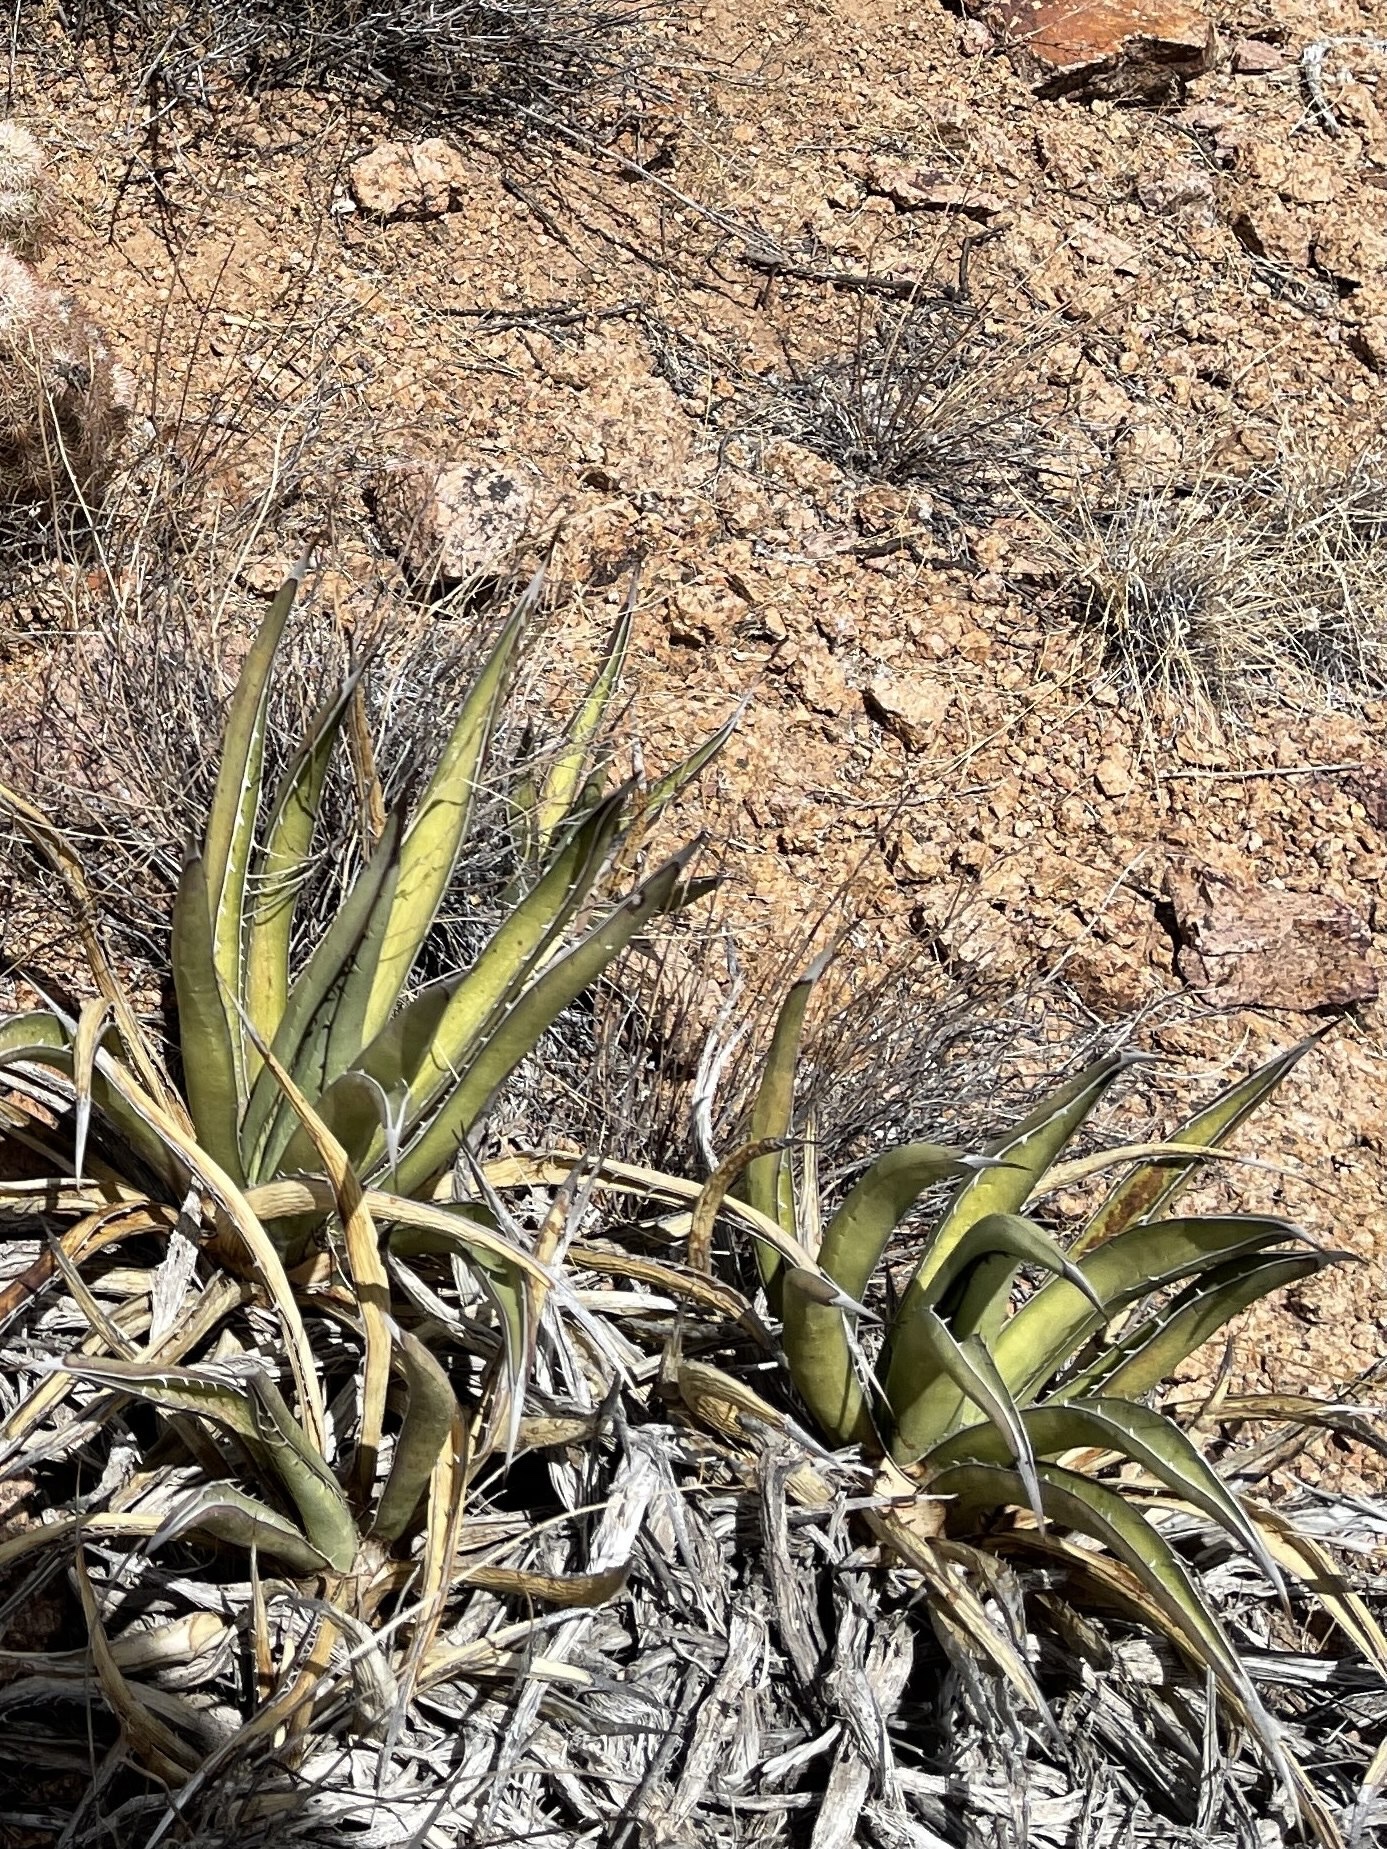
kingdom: Plantae
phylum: Tracheophyta
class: Liliopsida
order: Asparagales
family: Asparagaceae
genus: Agave
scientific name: Agave lechuguilla
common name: Lecheguilla agave
